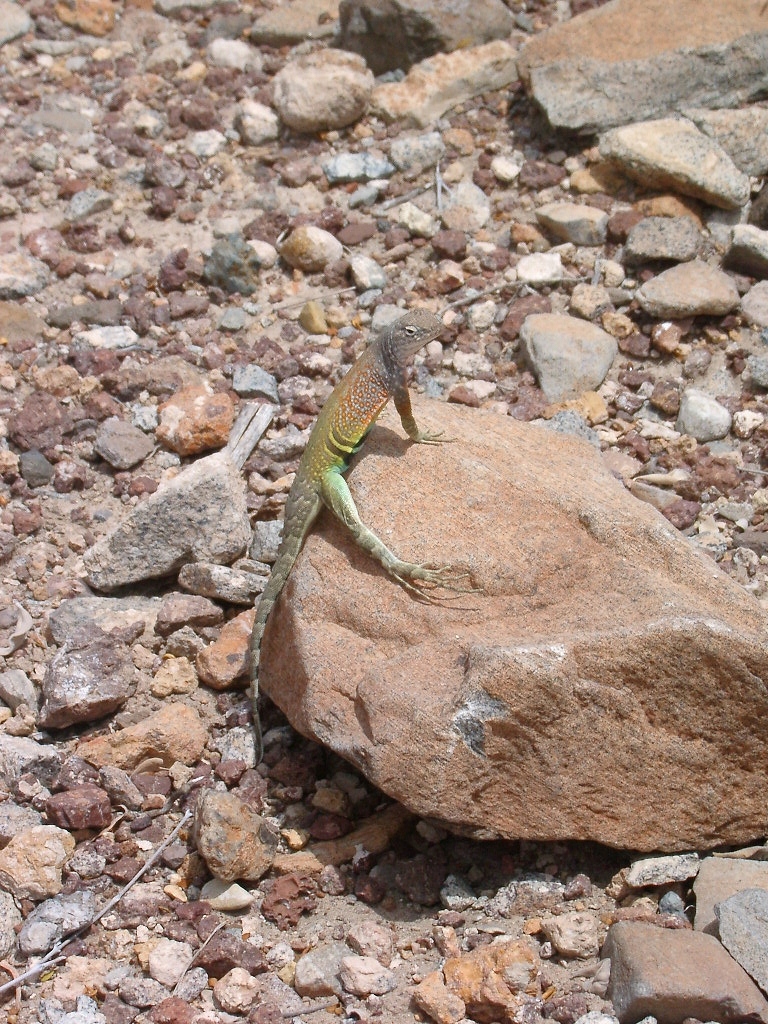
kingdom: Animalia
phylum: Chordata
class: Squamata
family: Phrynosomatidae
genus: Cophosaurus
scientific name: Cophosaurus texanus
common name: Greater earless lizard
